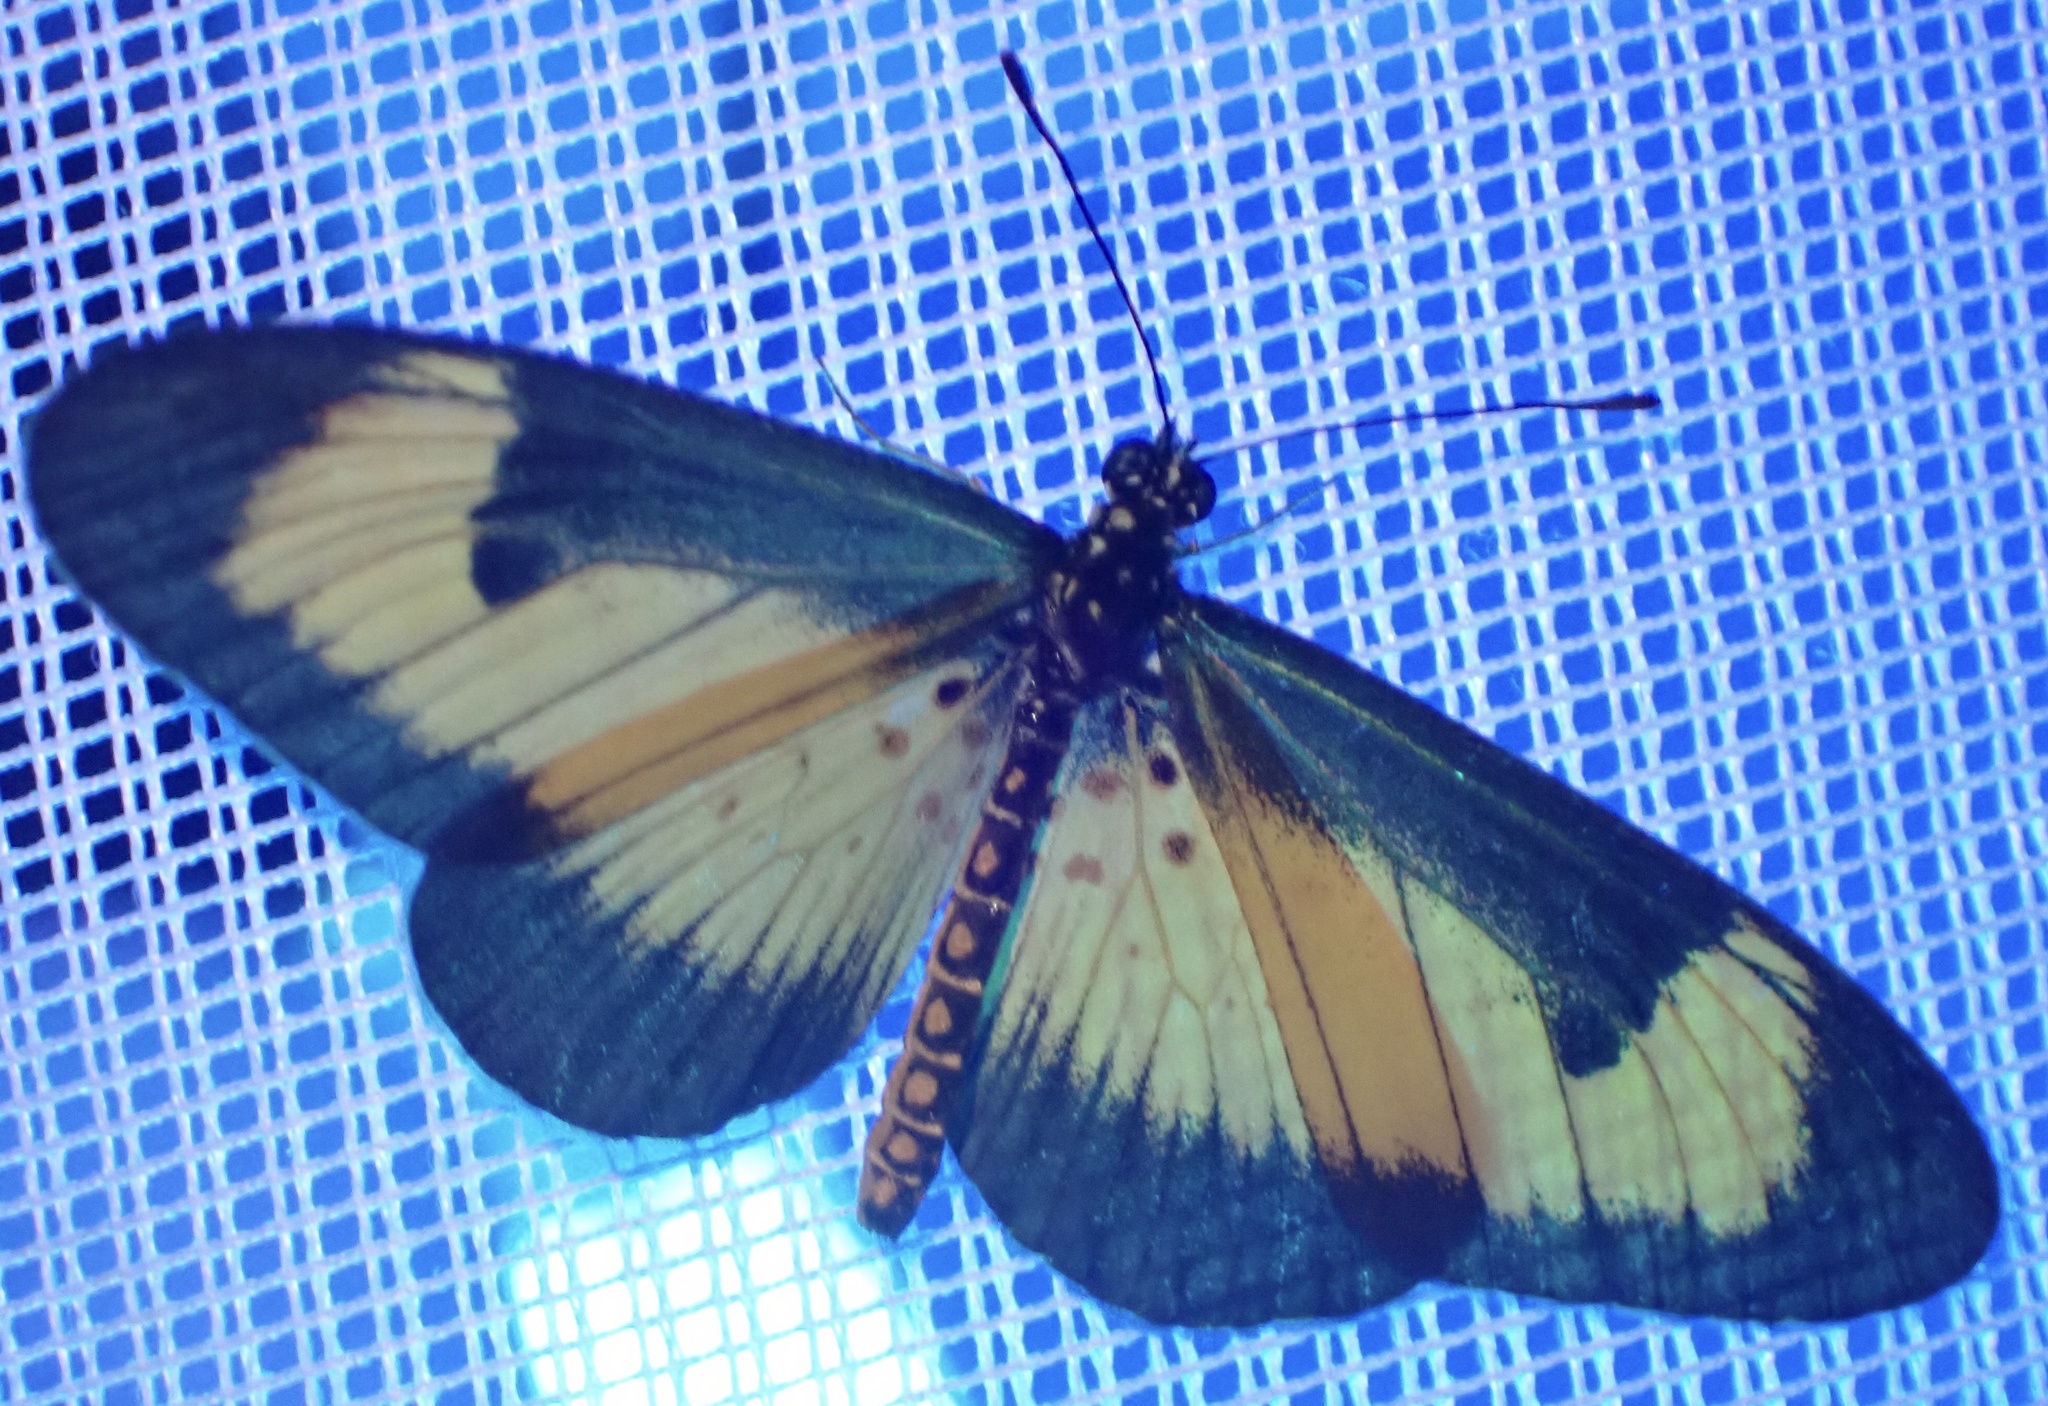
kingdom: Animalia
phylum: Arthropoda
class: Insecta
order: Lepidoptera
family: Nymphalidae
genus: Acraea
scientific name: Acraea Telchinia alciope
